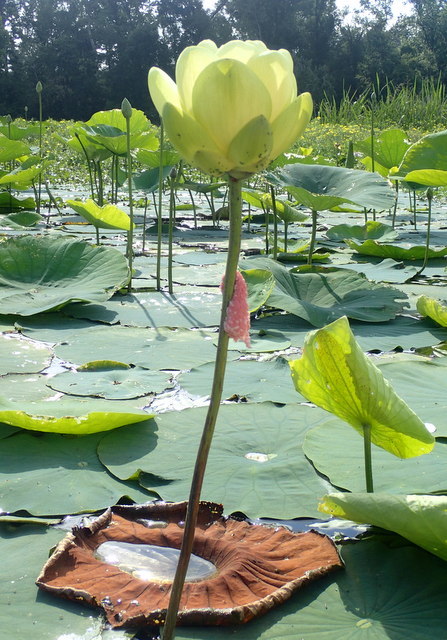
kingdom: Plantae
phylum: Tracheophyta
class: Magnoliopsida
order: Proteales
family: Nelumbonaceae
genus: Nelumbo
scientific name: Nelumbo lutea
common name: American lotus
